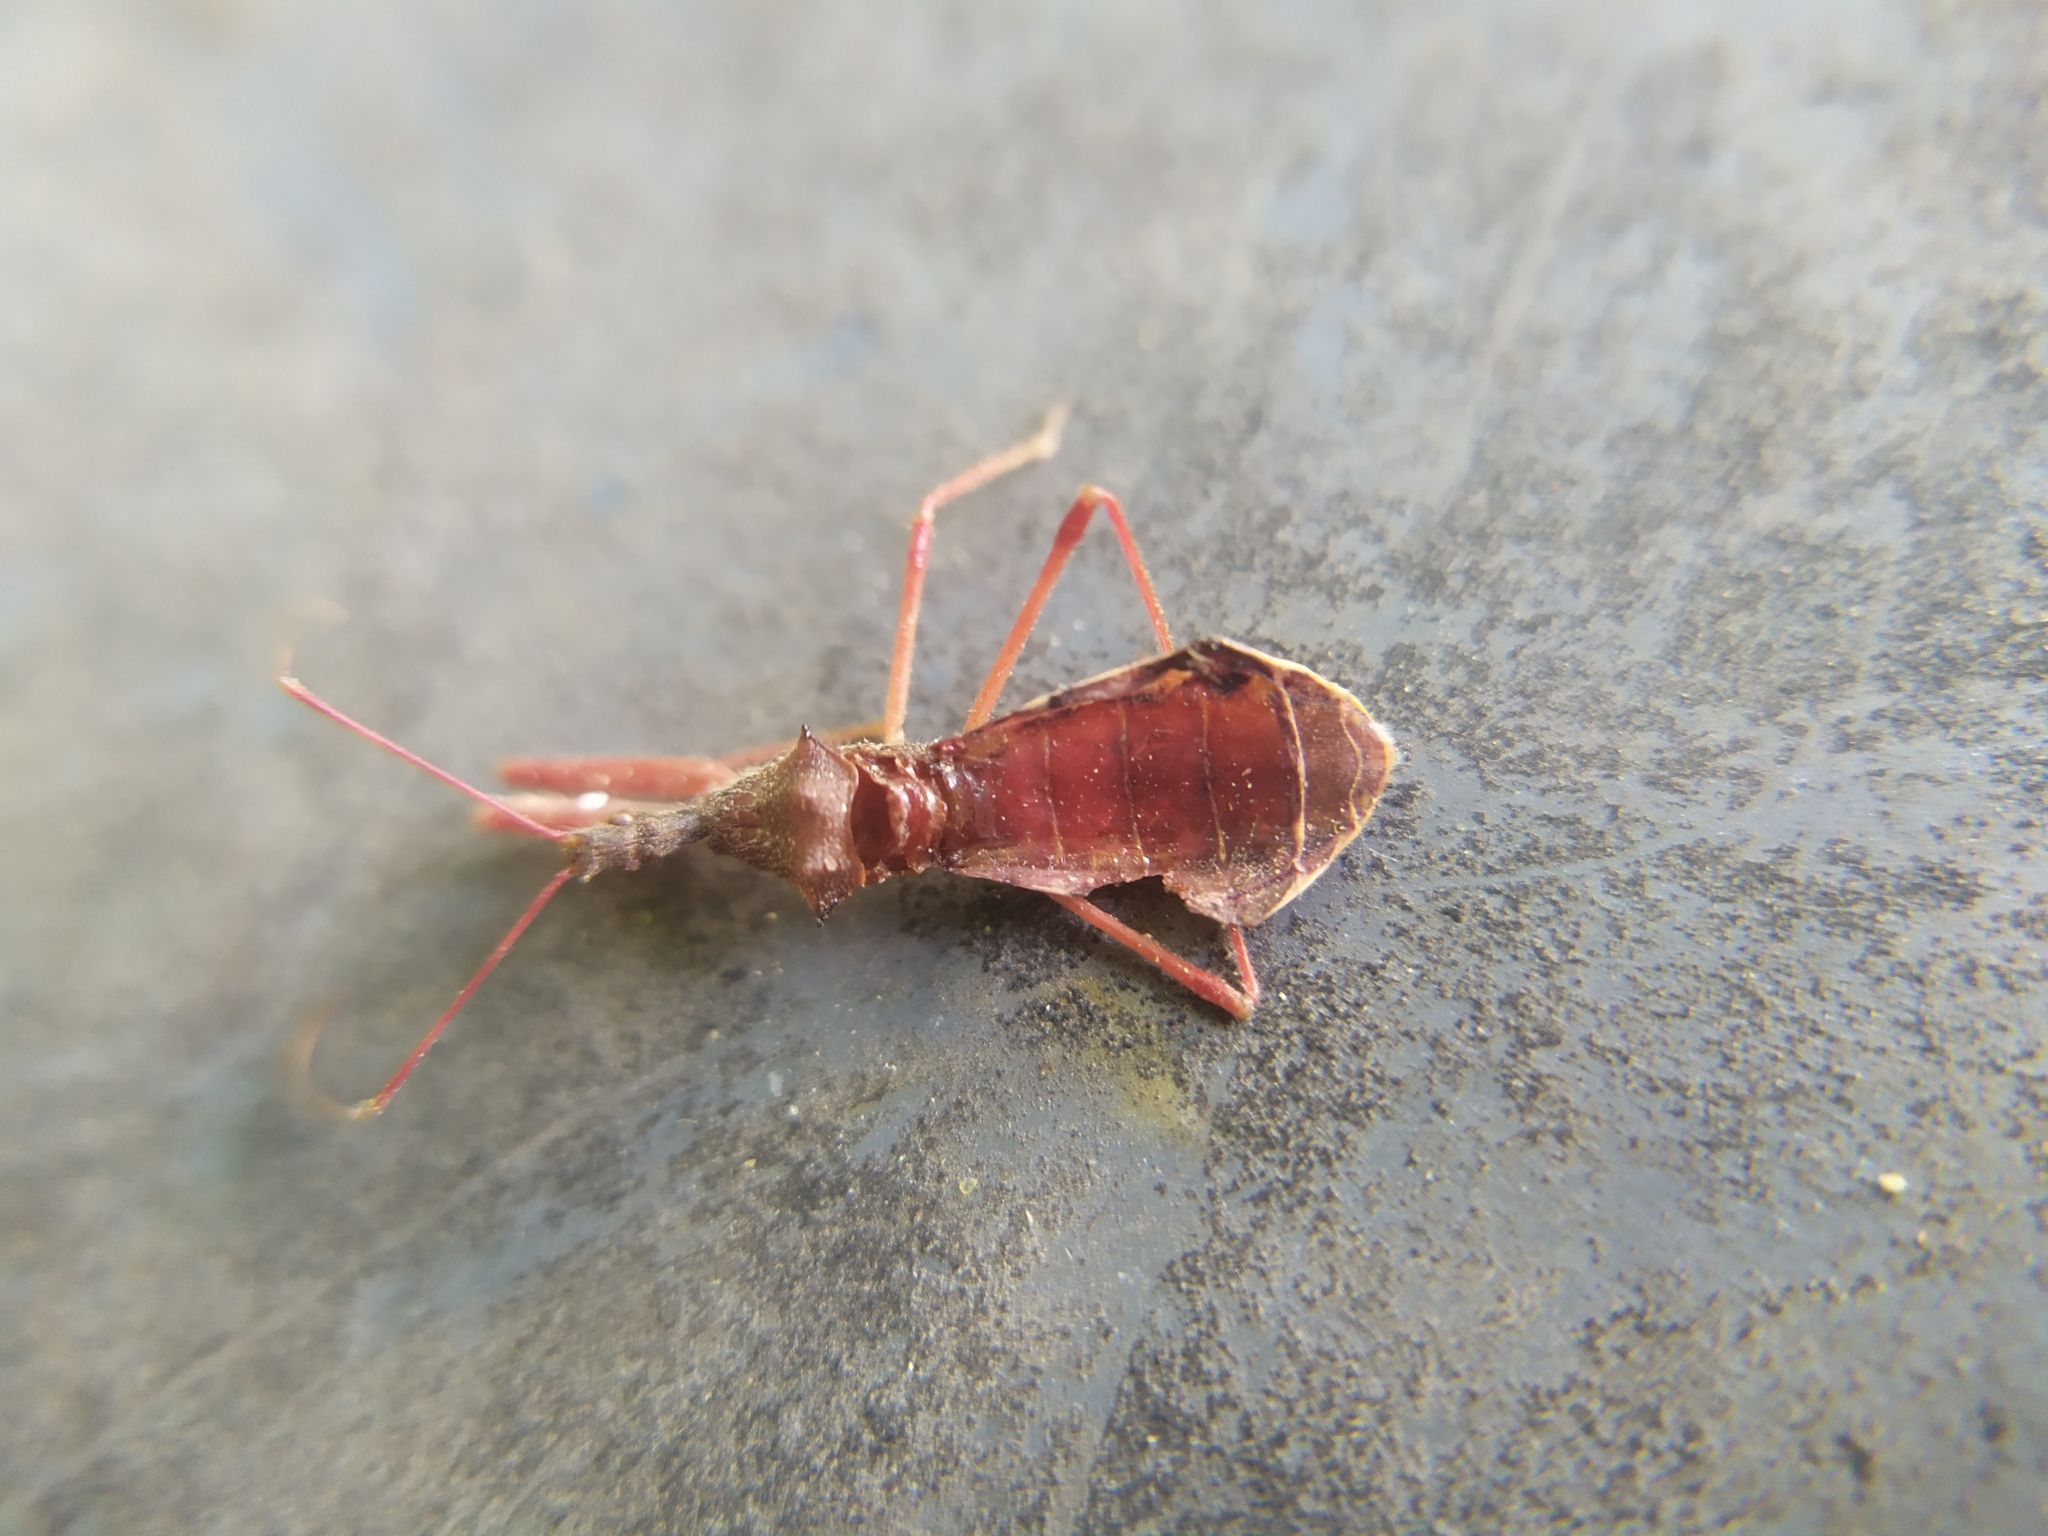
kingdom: Animalia
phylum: Arthropoda
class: Insecta
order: Hemiptera
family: Reduviidae
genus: Nagusta
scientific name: Nagusta goedelii
